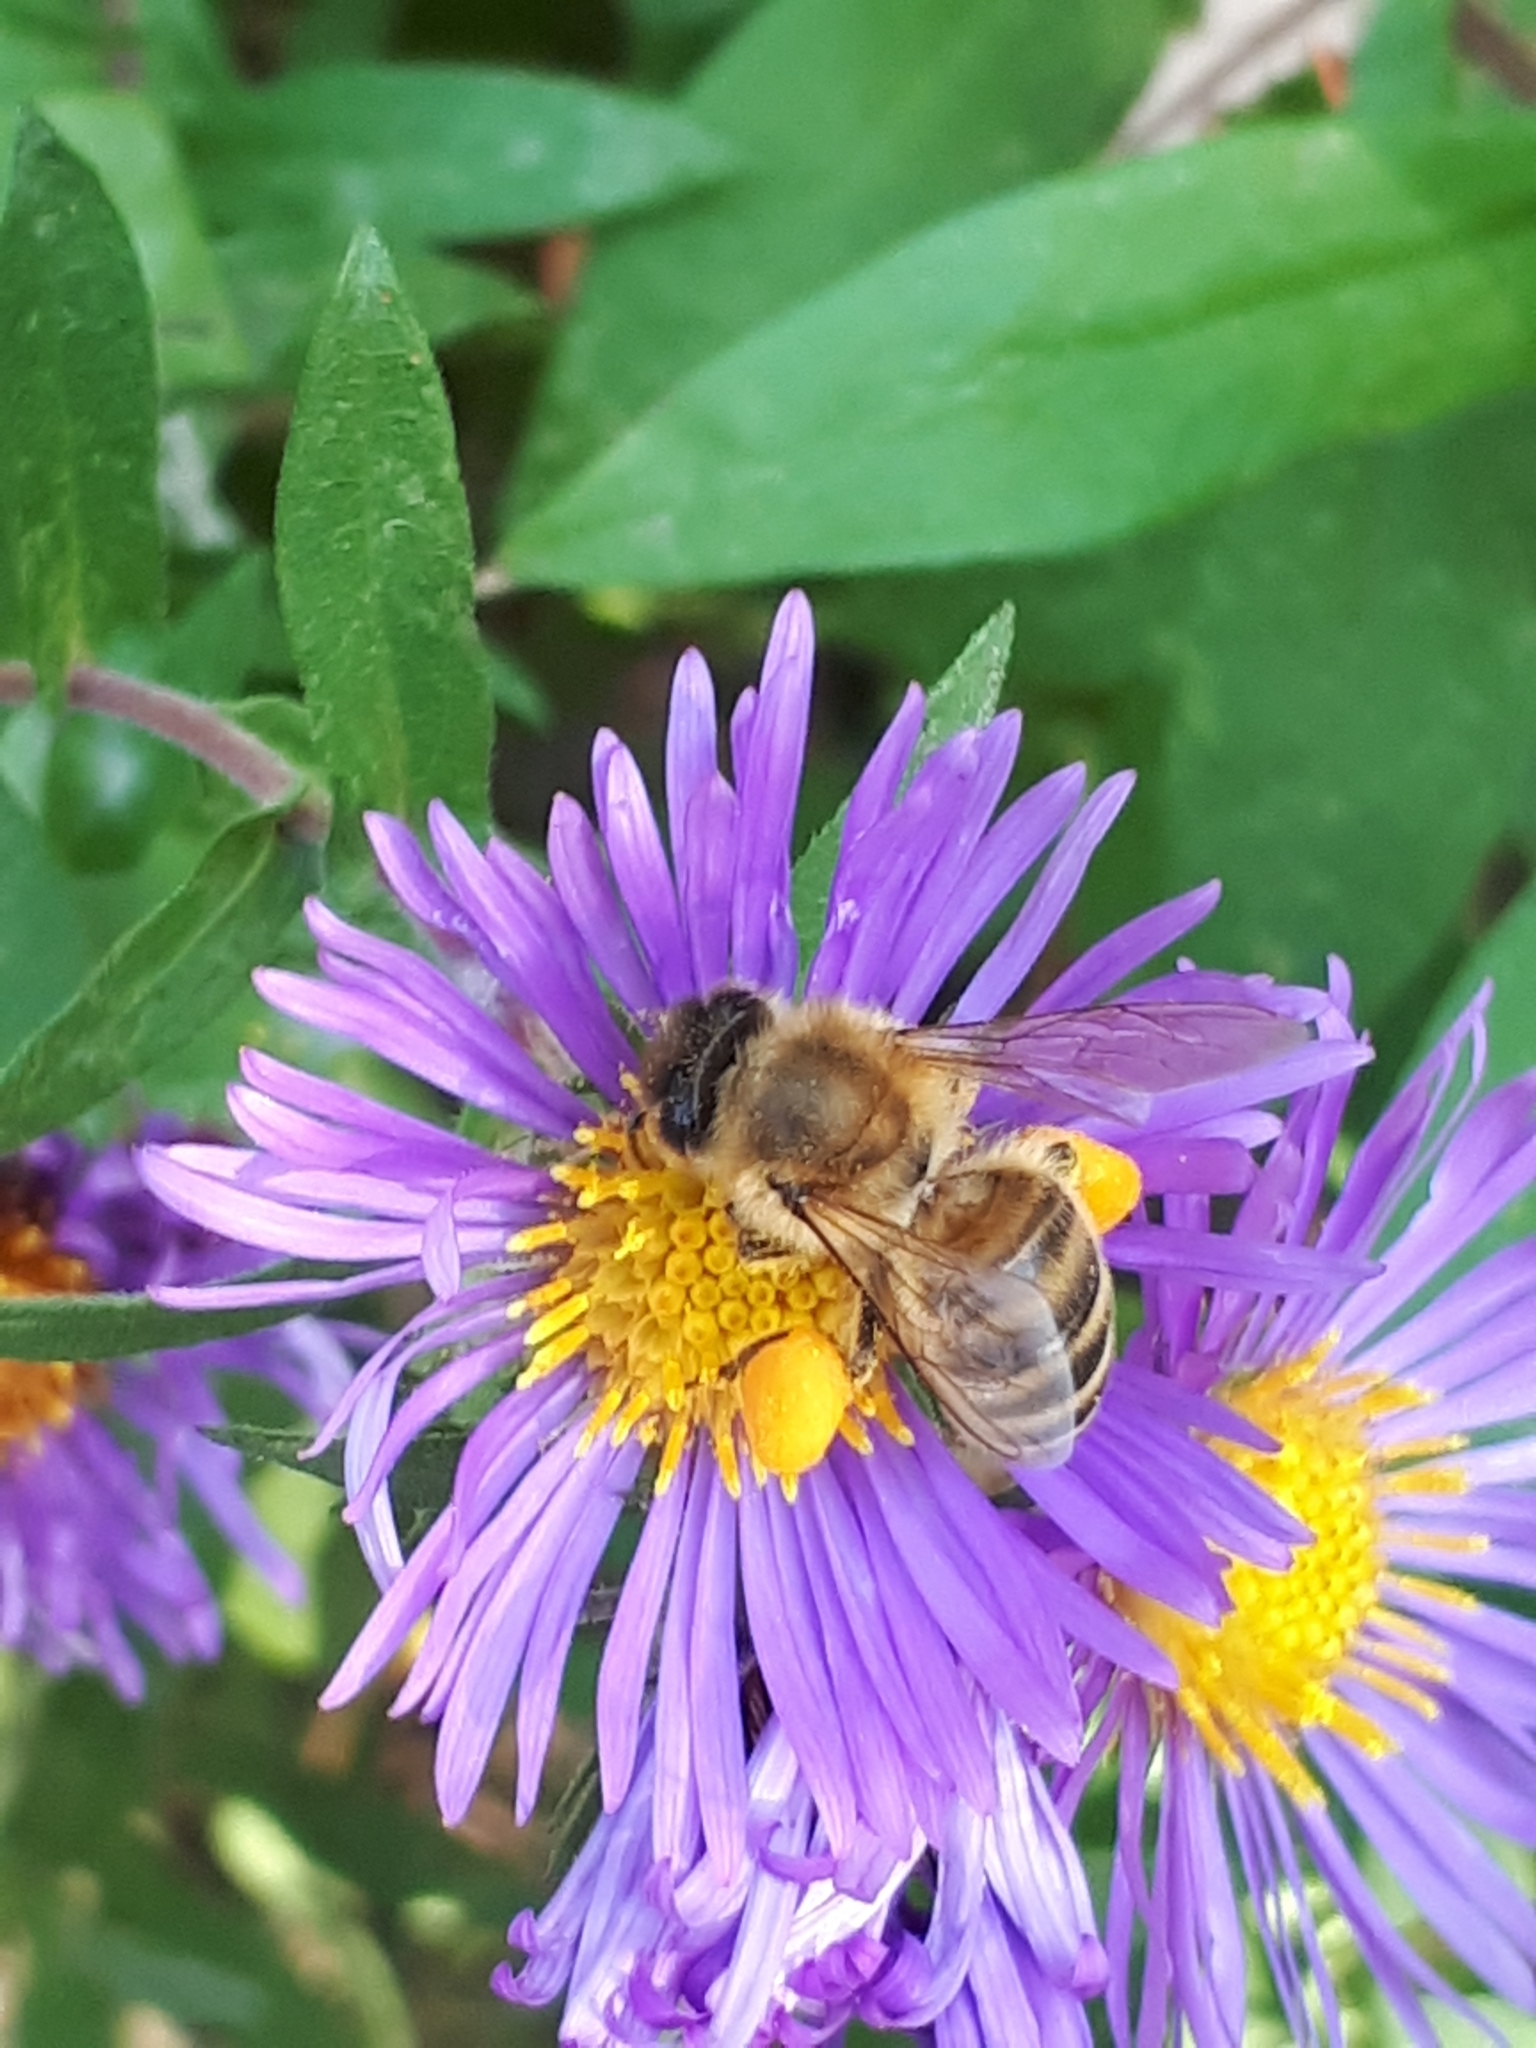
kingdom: Animalia
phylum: Arthropoda
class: Insecta
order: Hymenoptera
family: Apidae
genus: Apis
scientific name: Apis mellifera
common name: Honey bee
